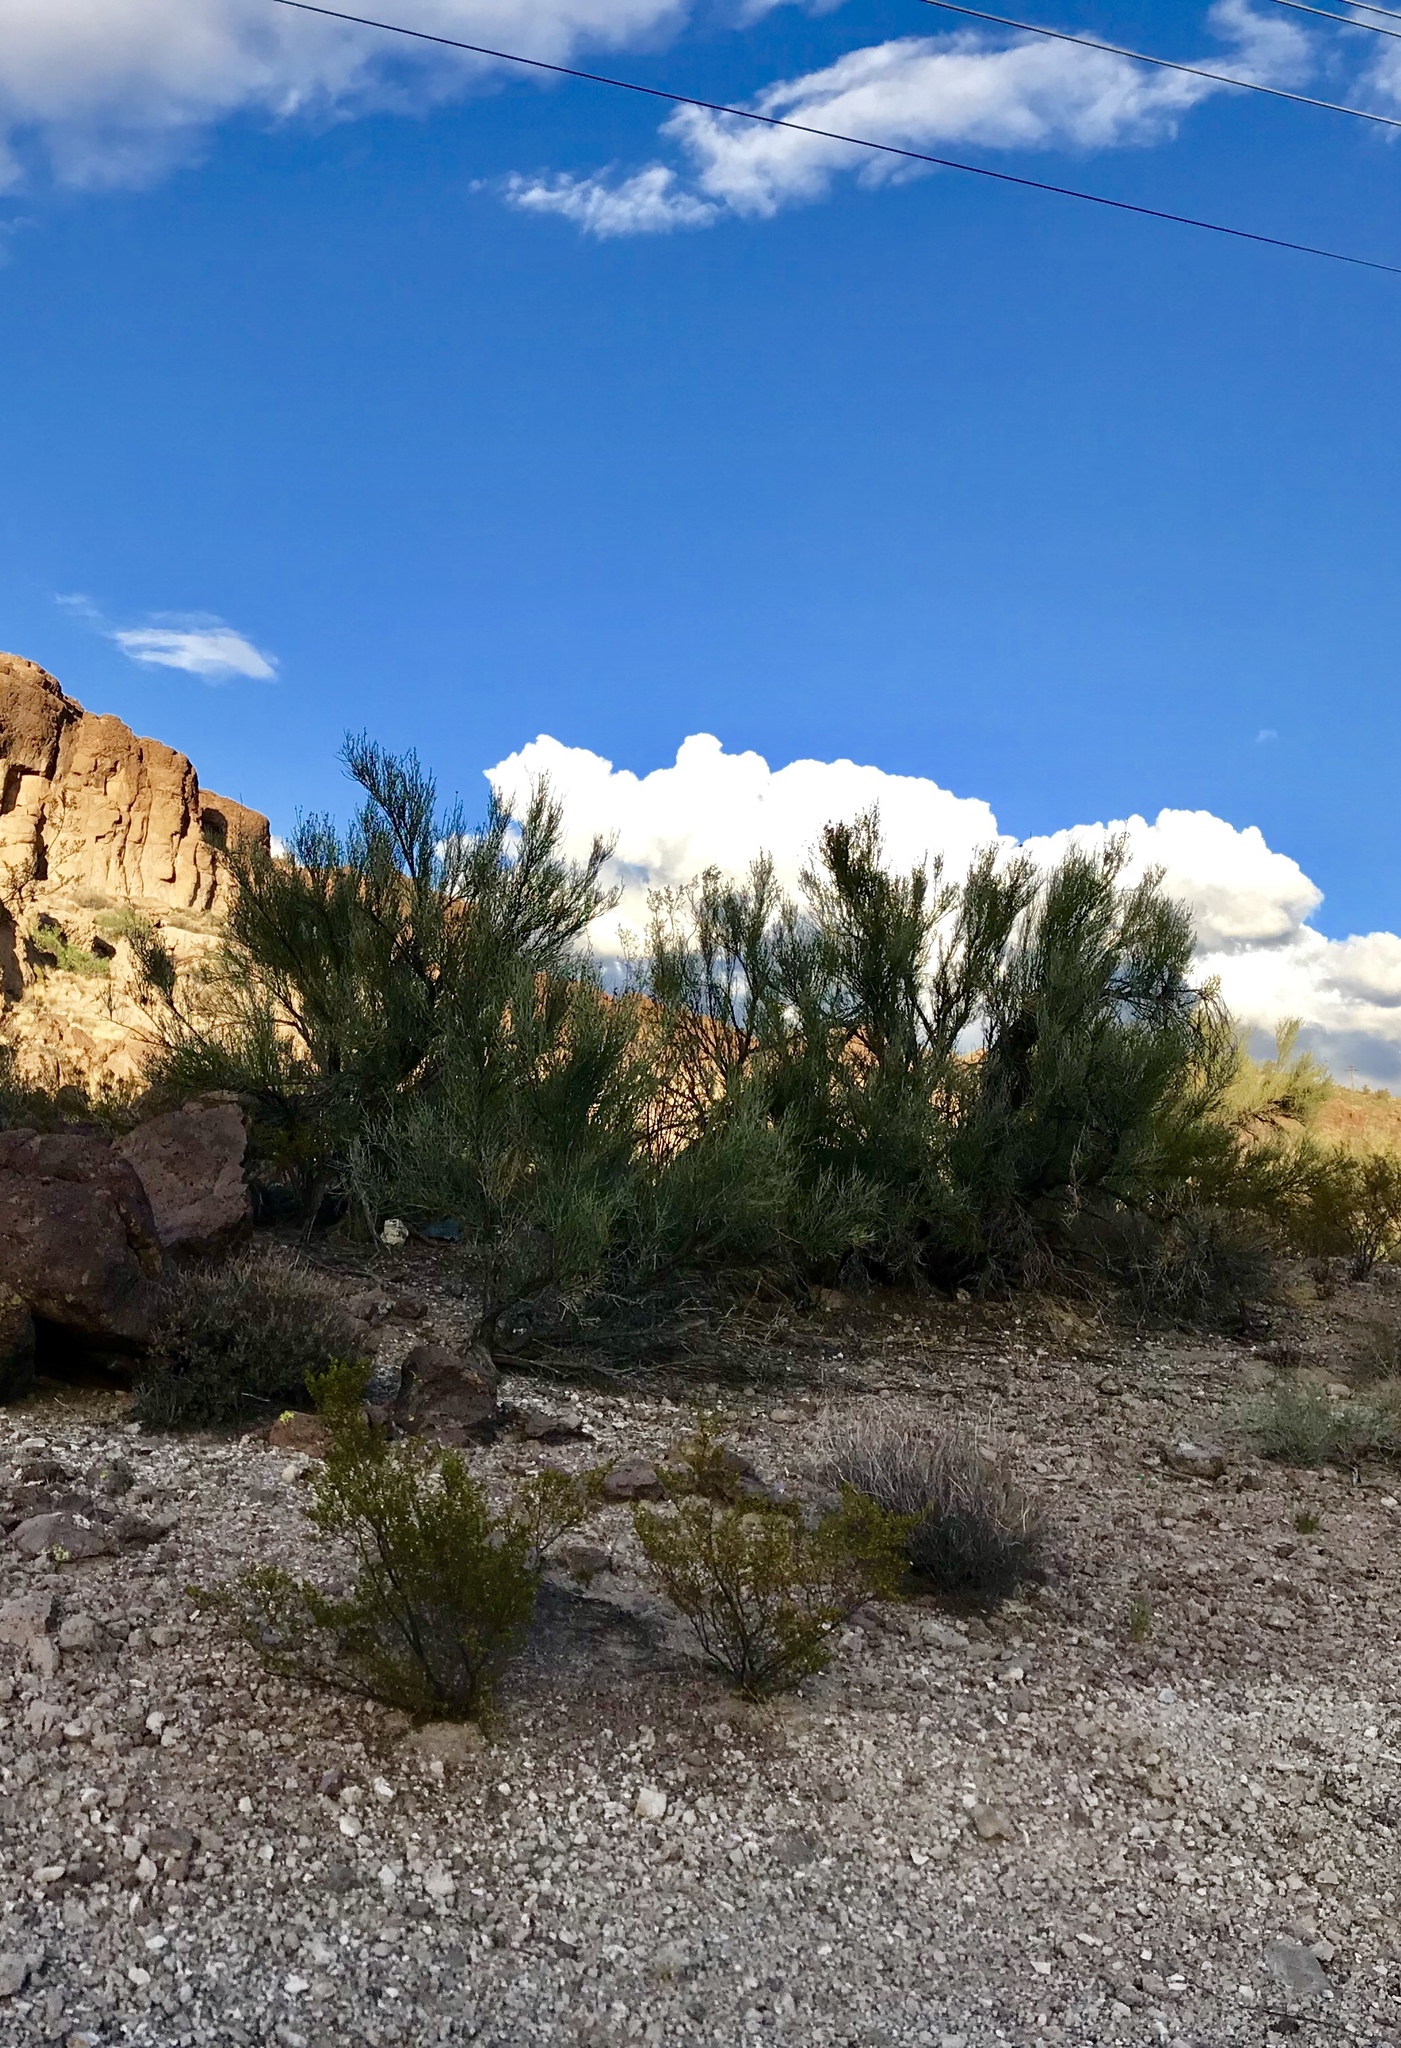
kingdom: Plantae
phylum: Tracheophyta
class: Magnoliopsida
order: Celastrales
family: Celastraceae
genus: Canotia
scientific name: Canotia holacantha
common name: Crucifixion thorns
